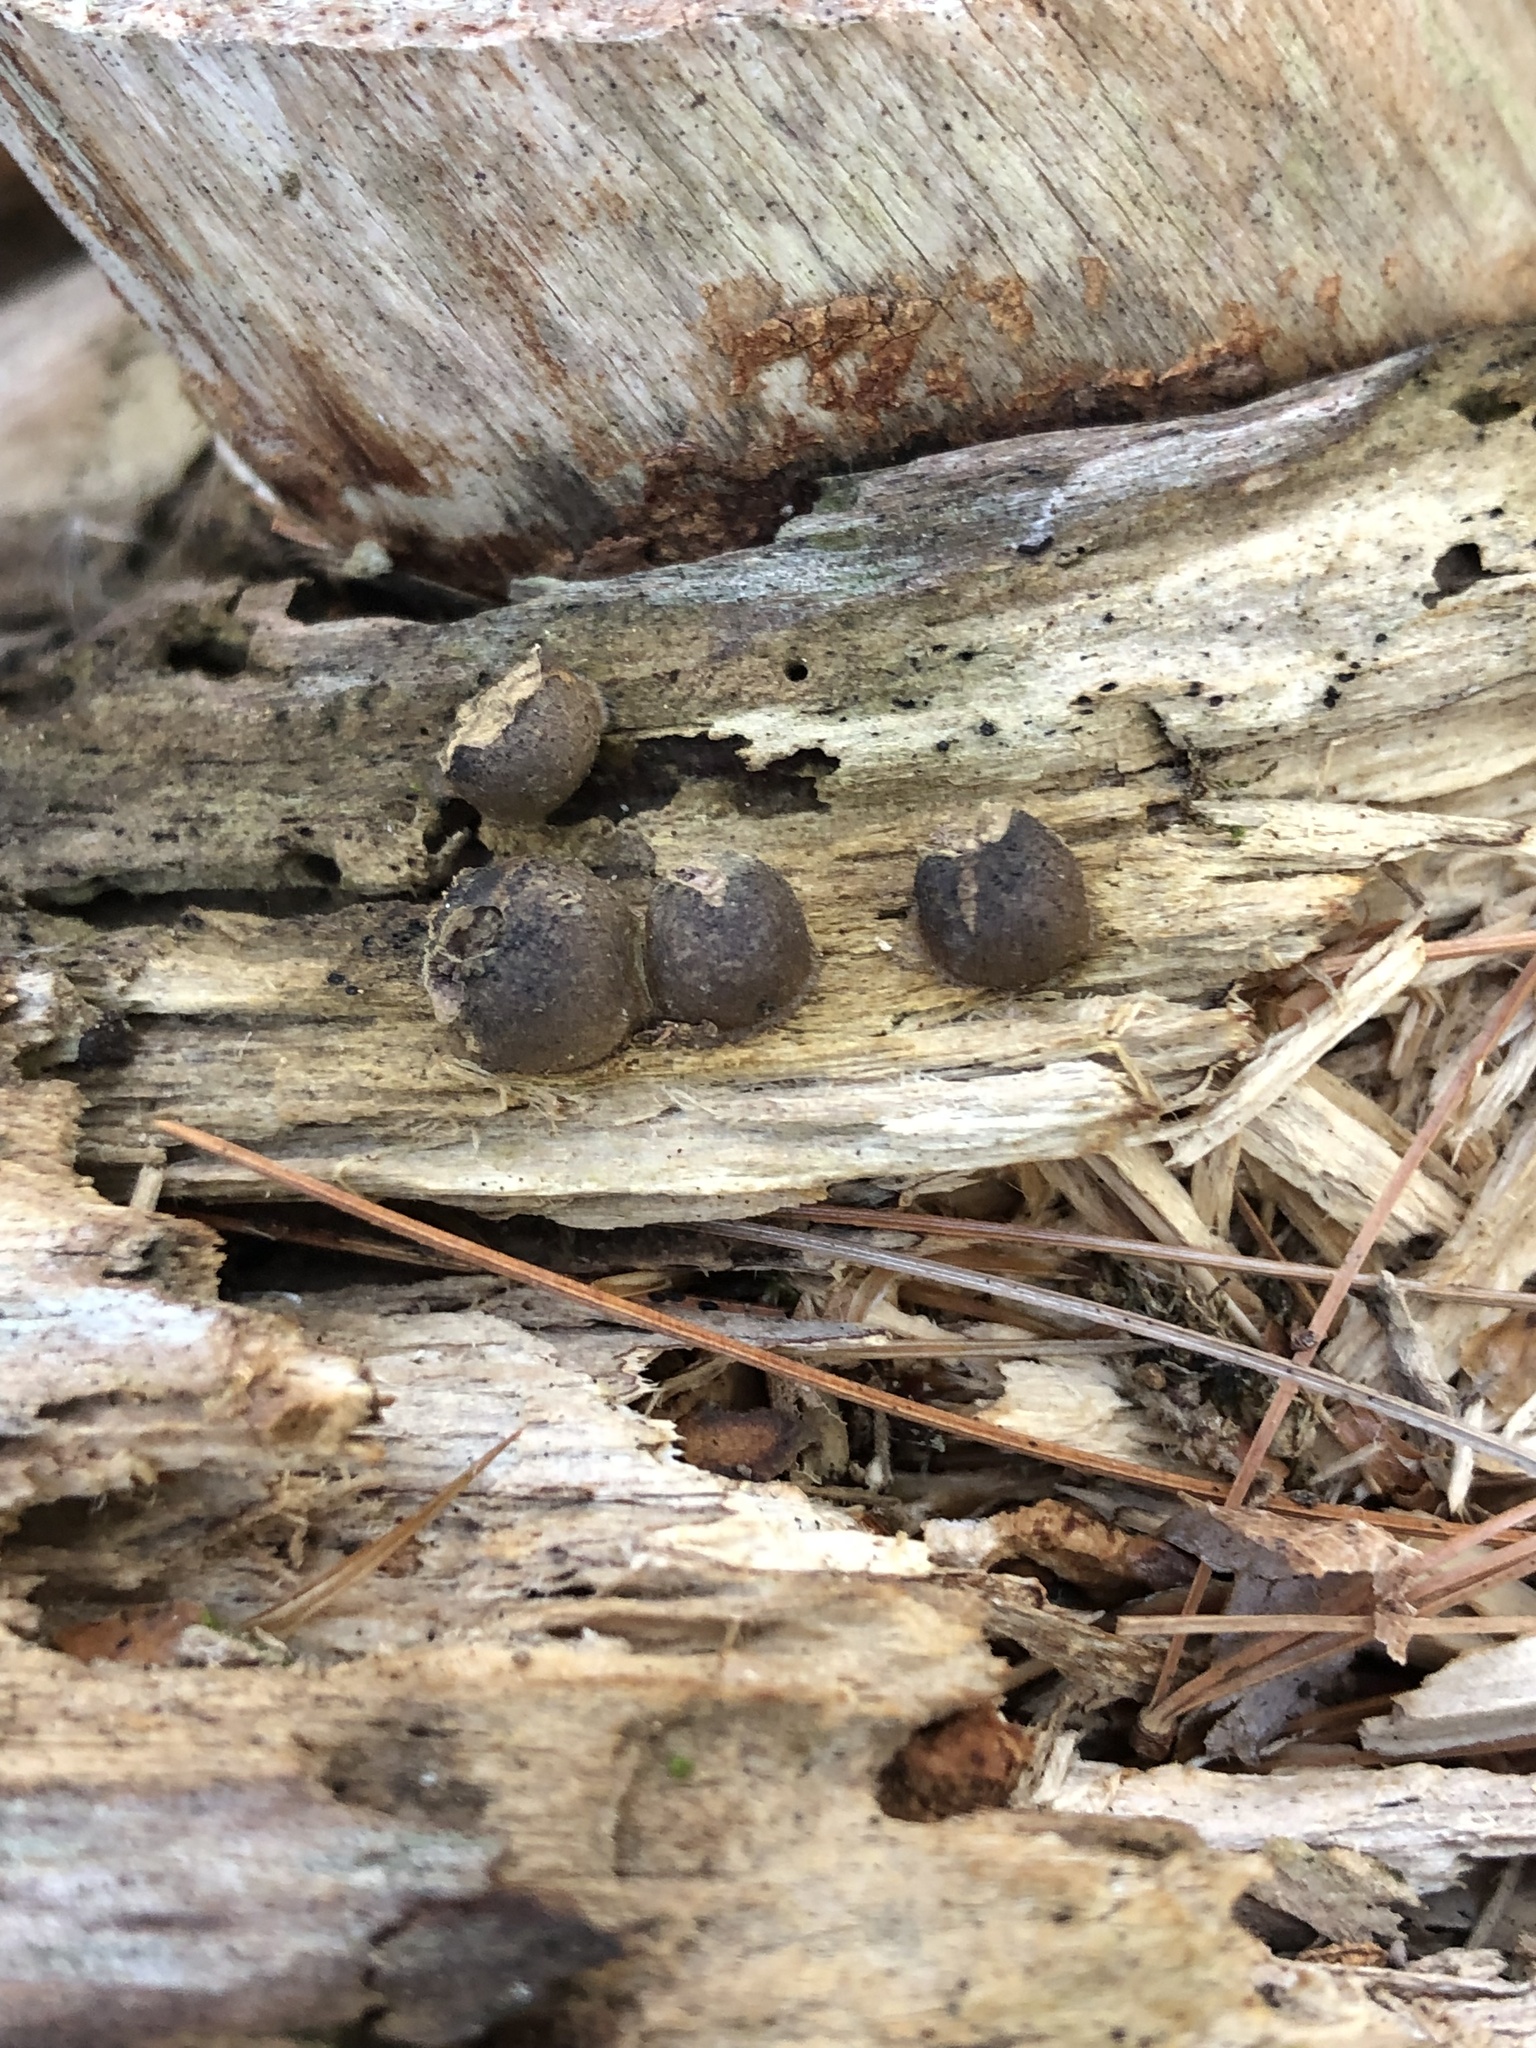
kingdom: Protozoa
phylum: Mycetozoa
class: Myxomycetes
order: Cribrariales
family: Tubiferaceae
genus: Lycogala
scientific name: Lycogala epidendrum
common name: Wolf's milk
